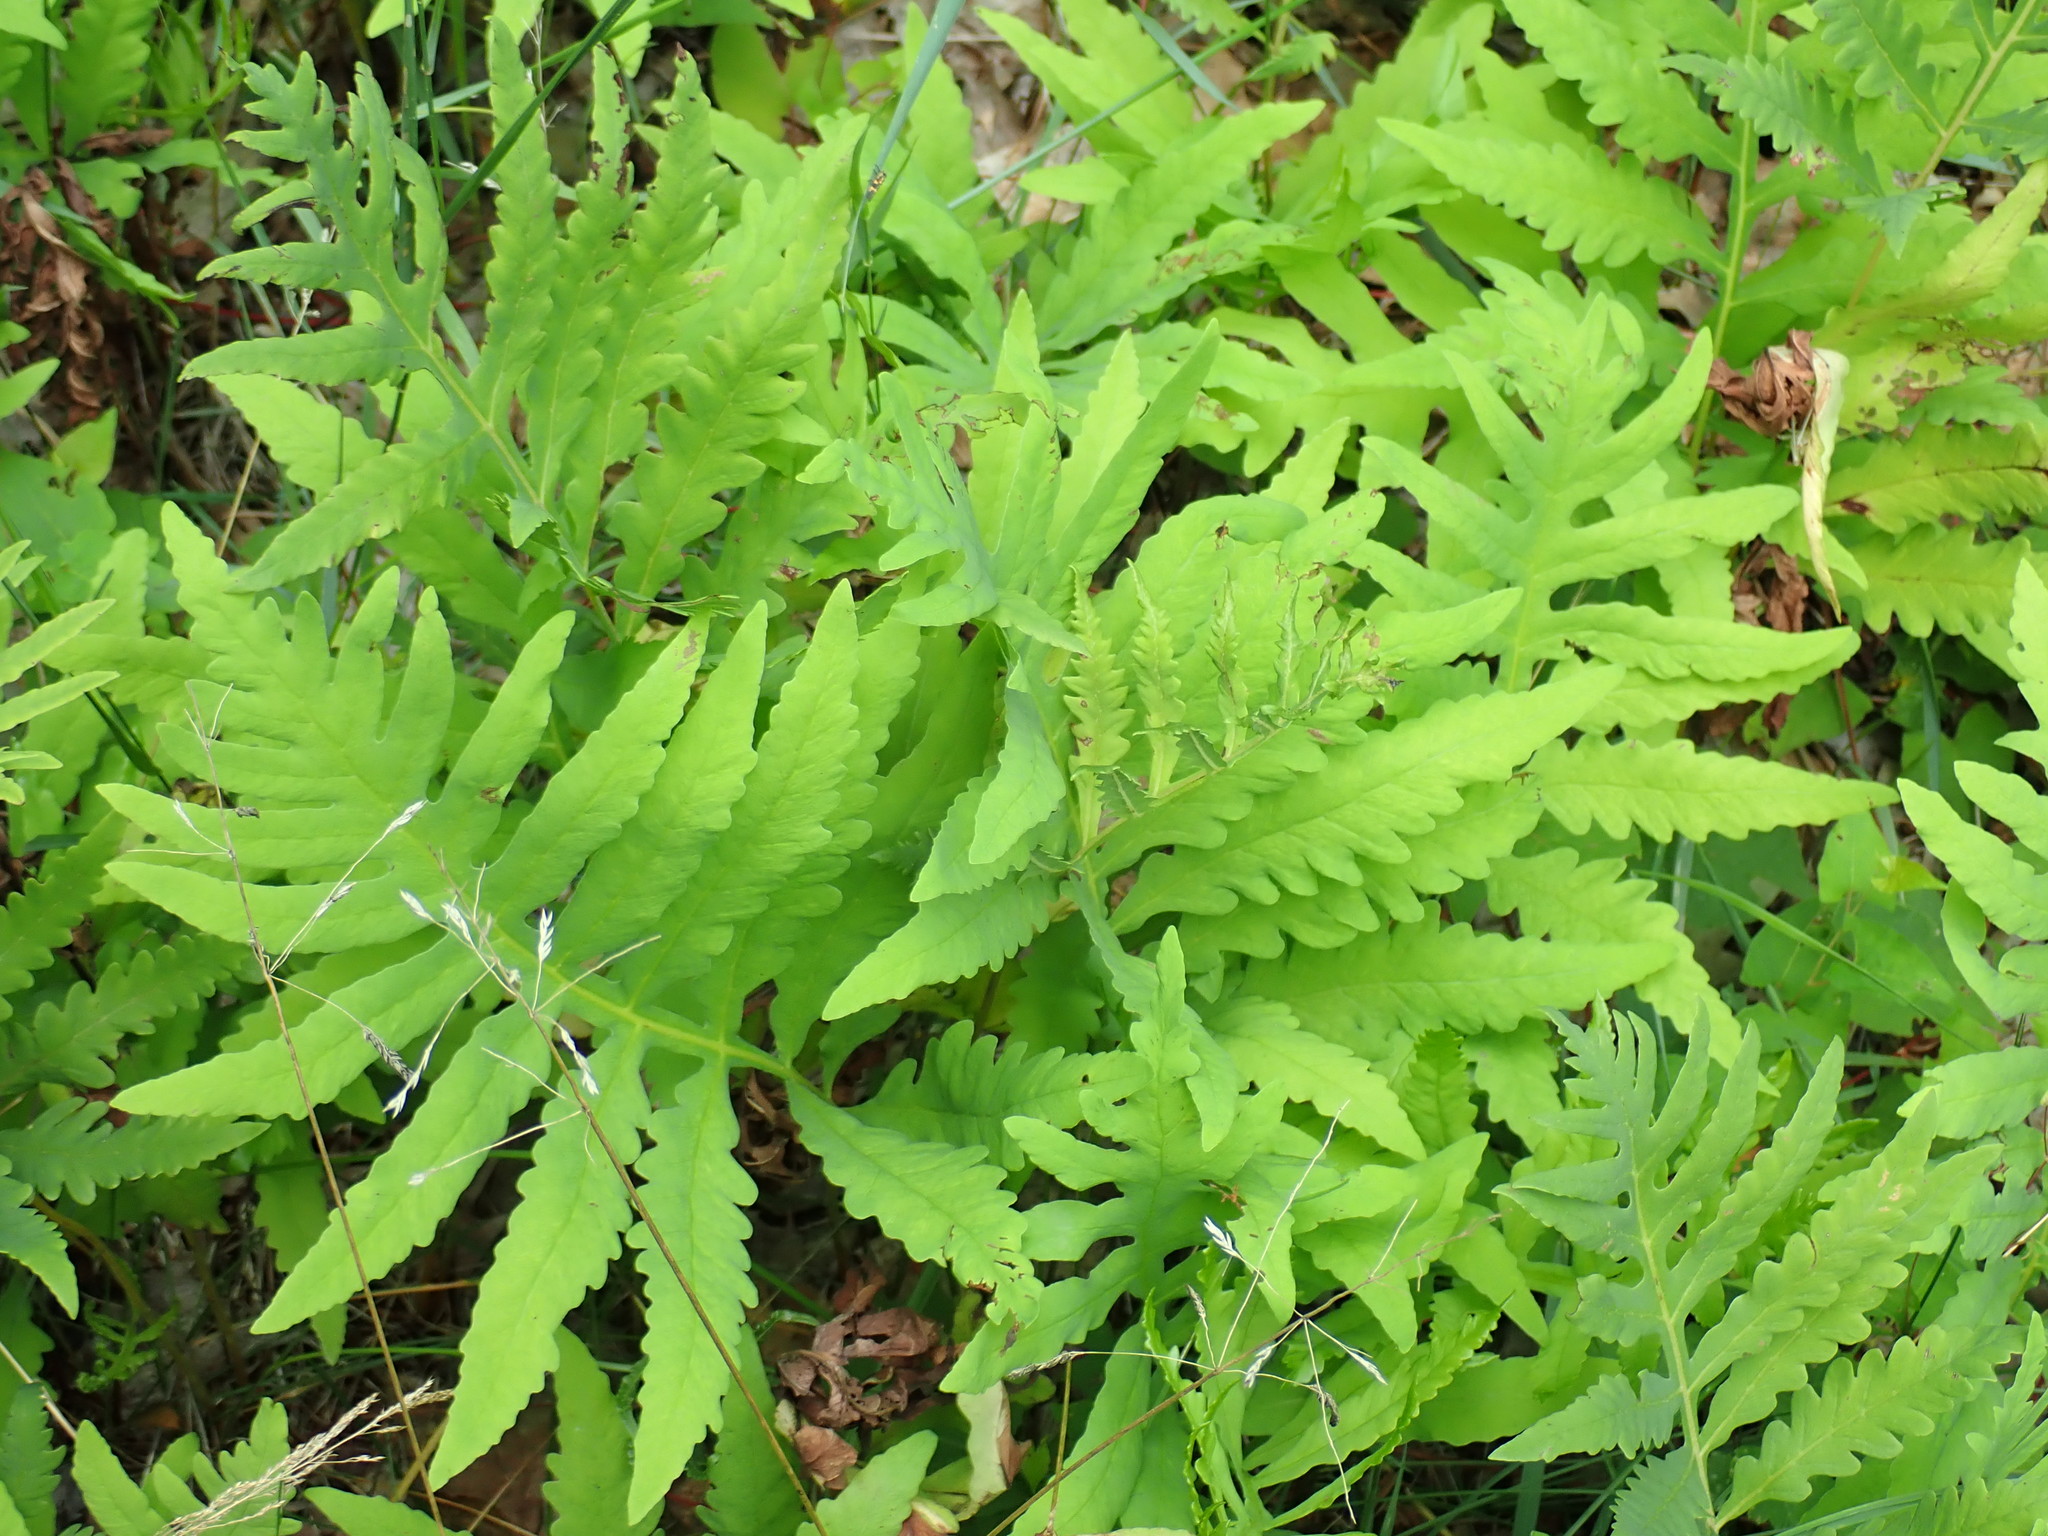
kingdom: Plantae
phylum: Tracheophyta
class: Polypodiopsida
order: Polypodiales
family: Onocleaceae
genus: Onoclea
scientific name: Onoclea sensibilis
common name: Sensitive fern
